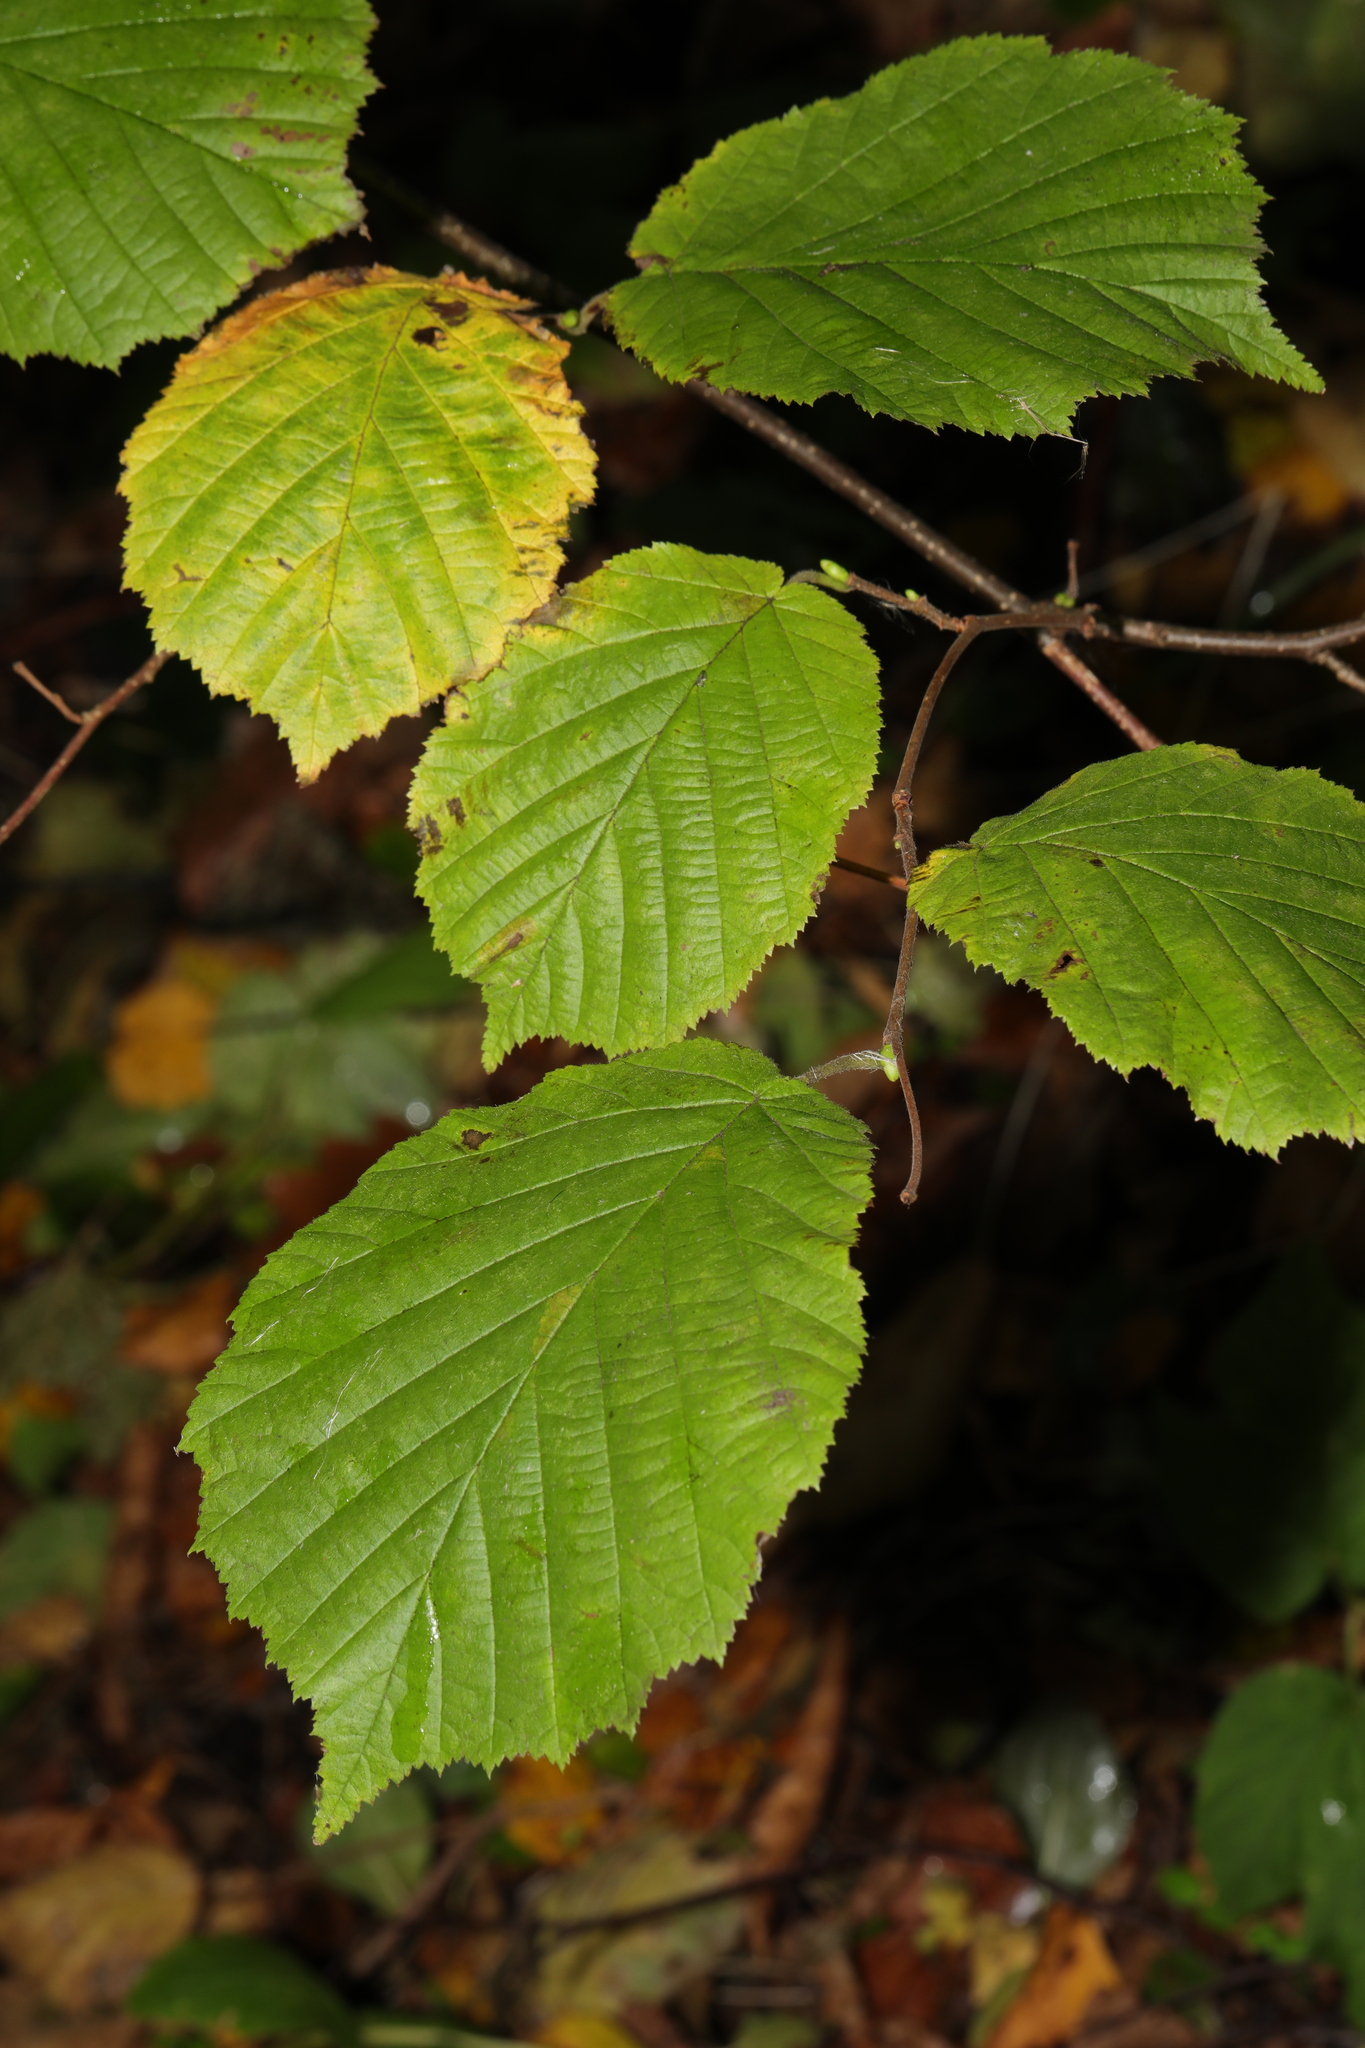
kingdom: Plantae
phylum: Tracheophyta
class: Magnoliopsida
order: Fagales
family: Betulaceae
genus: Corylus
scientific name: Corylus avellana
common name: European hazel
